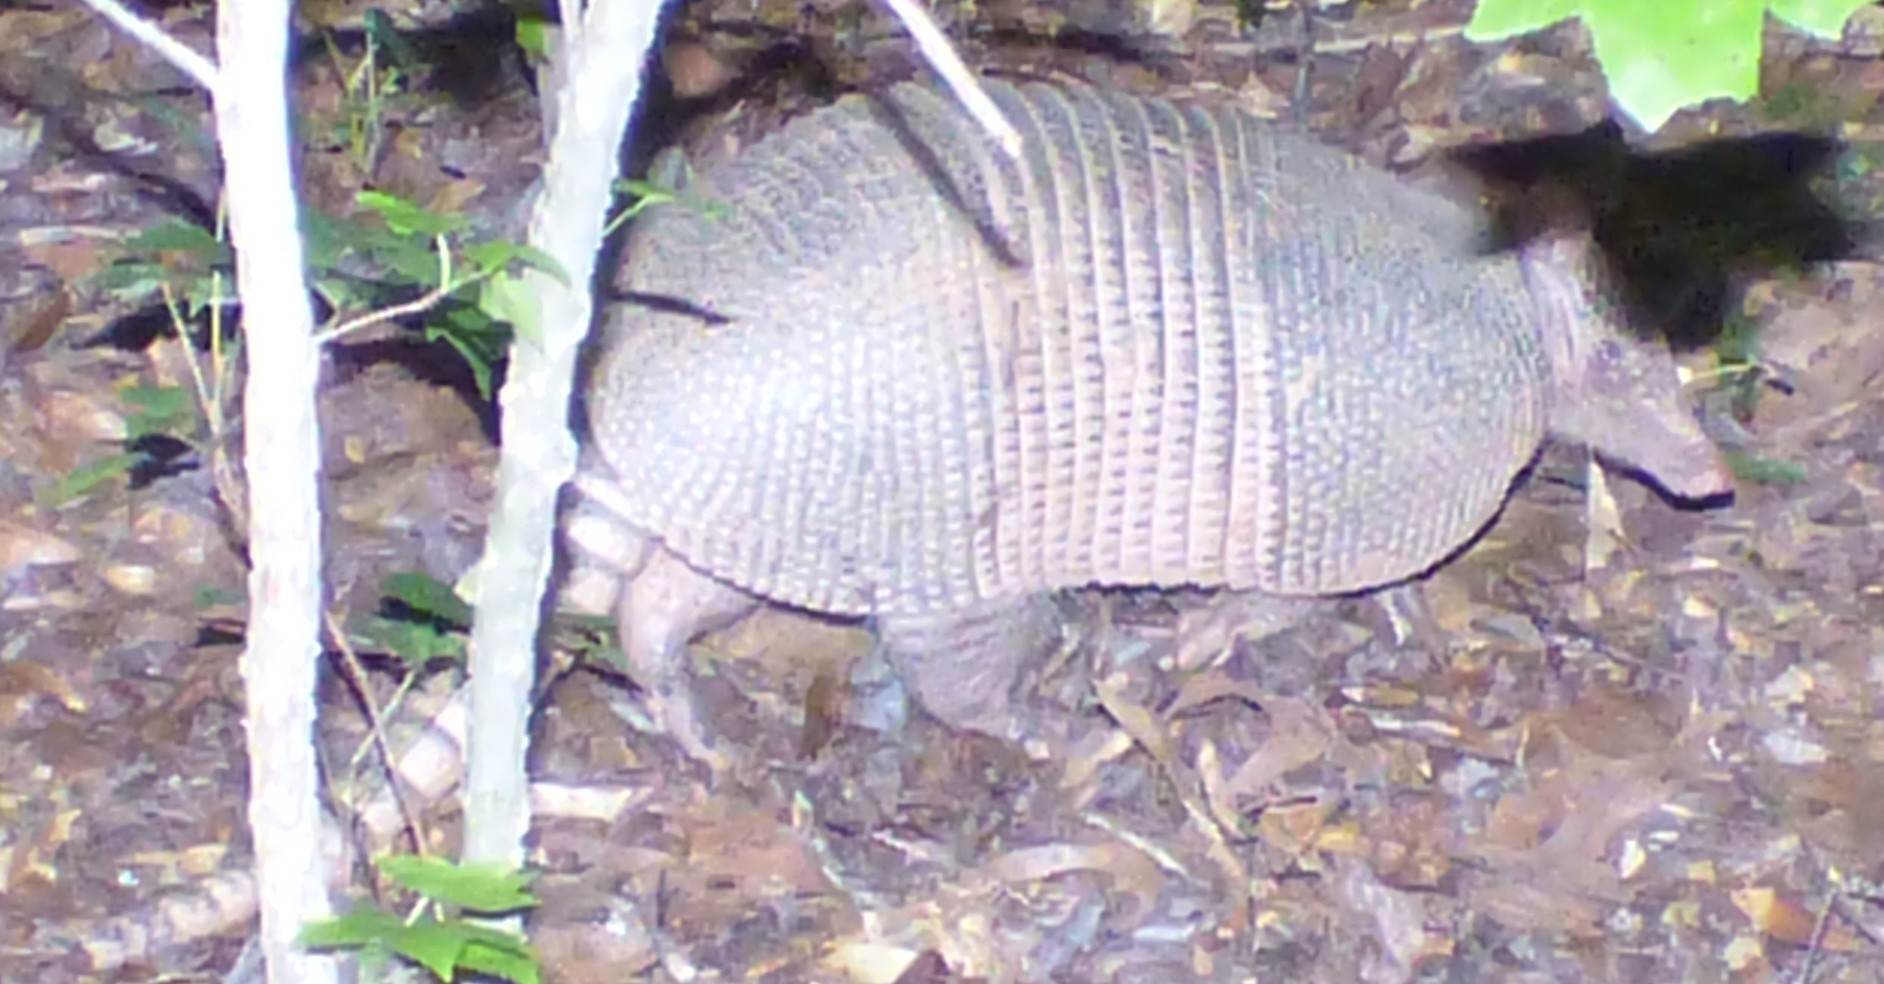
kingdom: Animalia
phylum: Chordata
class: Mammalia
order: Cingulata
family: Dasypodidae
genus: Dasypus
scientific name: Dasypus novemcinctus
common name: Nine-banded armadillo
